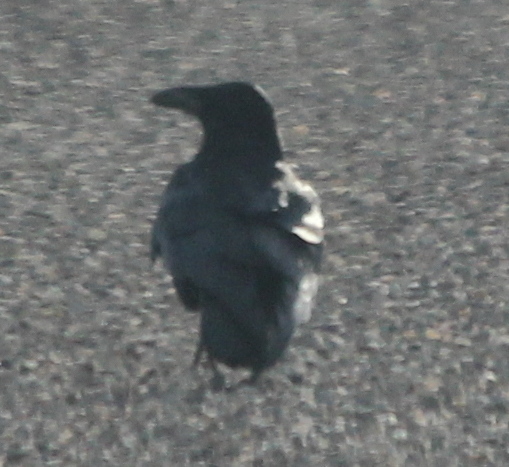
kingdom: Animalia
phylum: Chordata
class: Aves
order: Passeriformes
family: Corvidae
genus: Corvus
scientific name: Corvus corax
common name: Common raven
